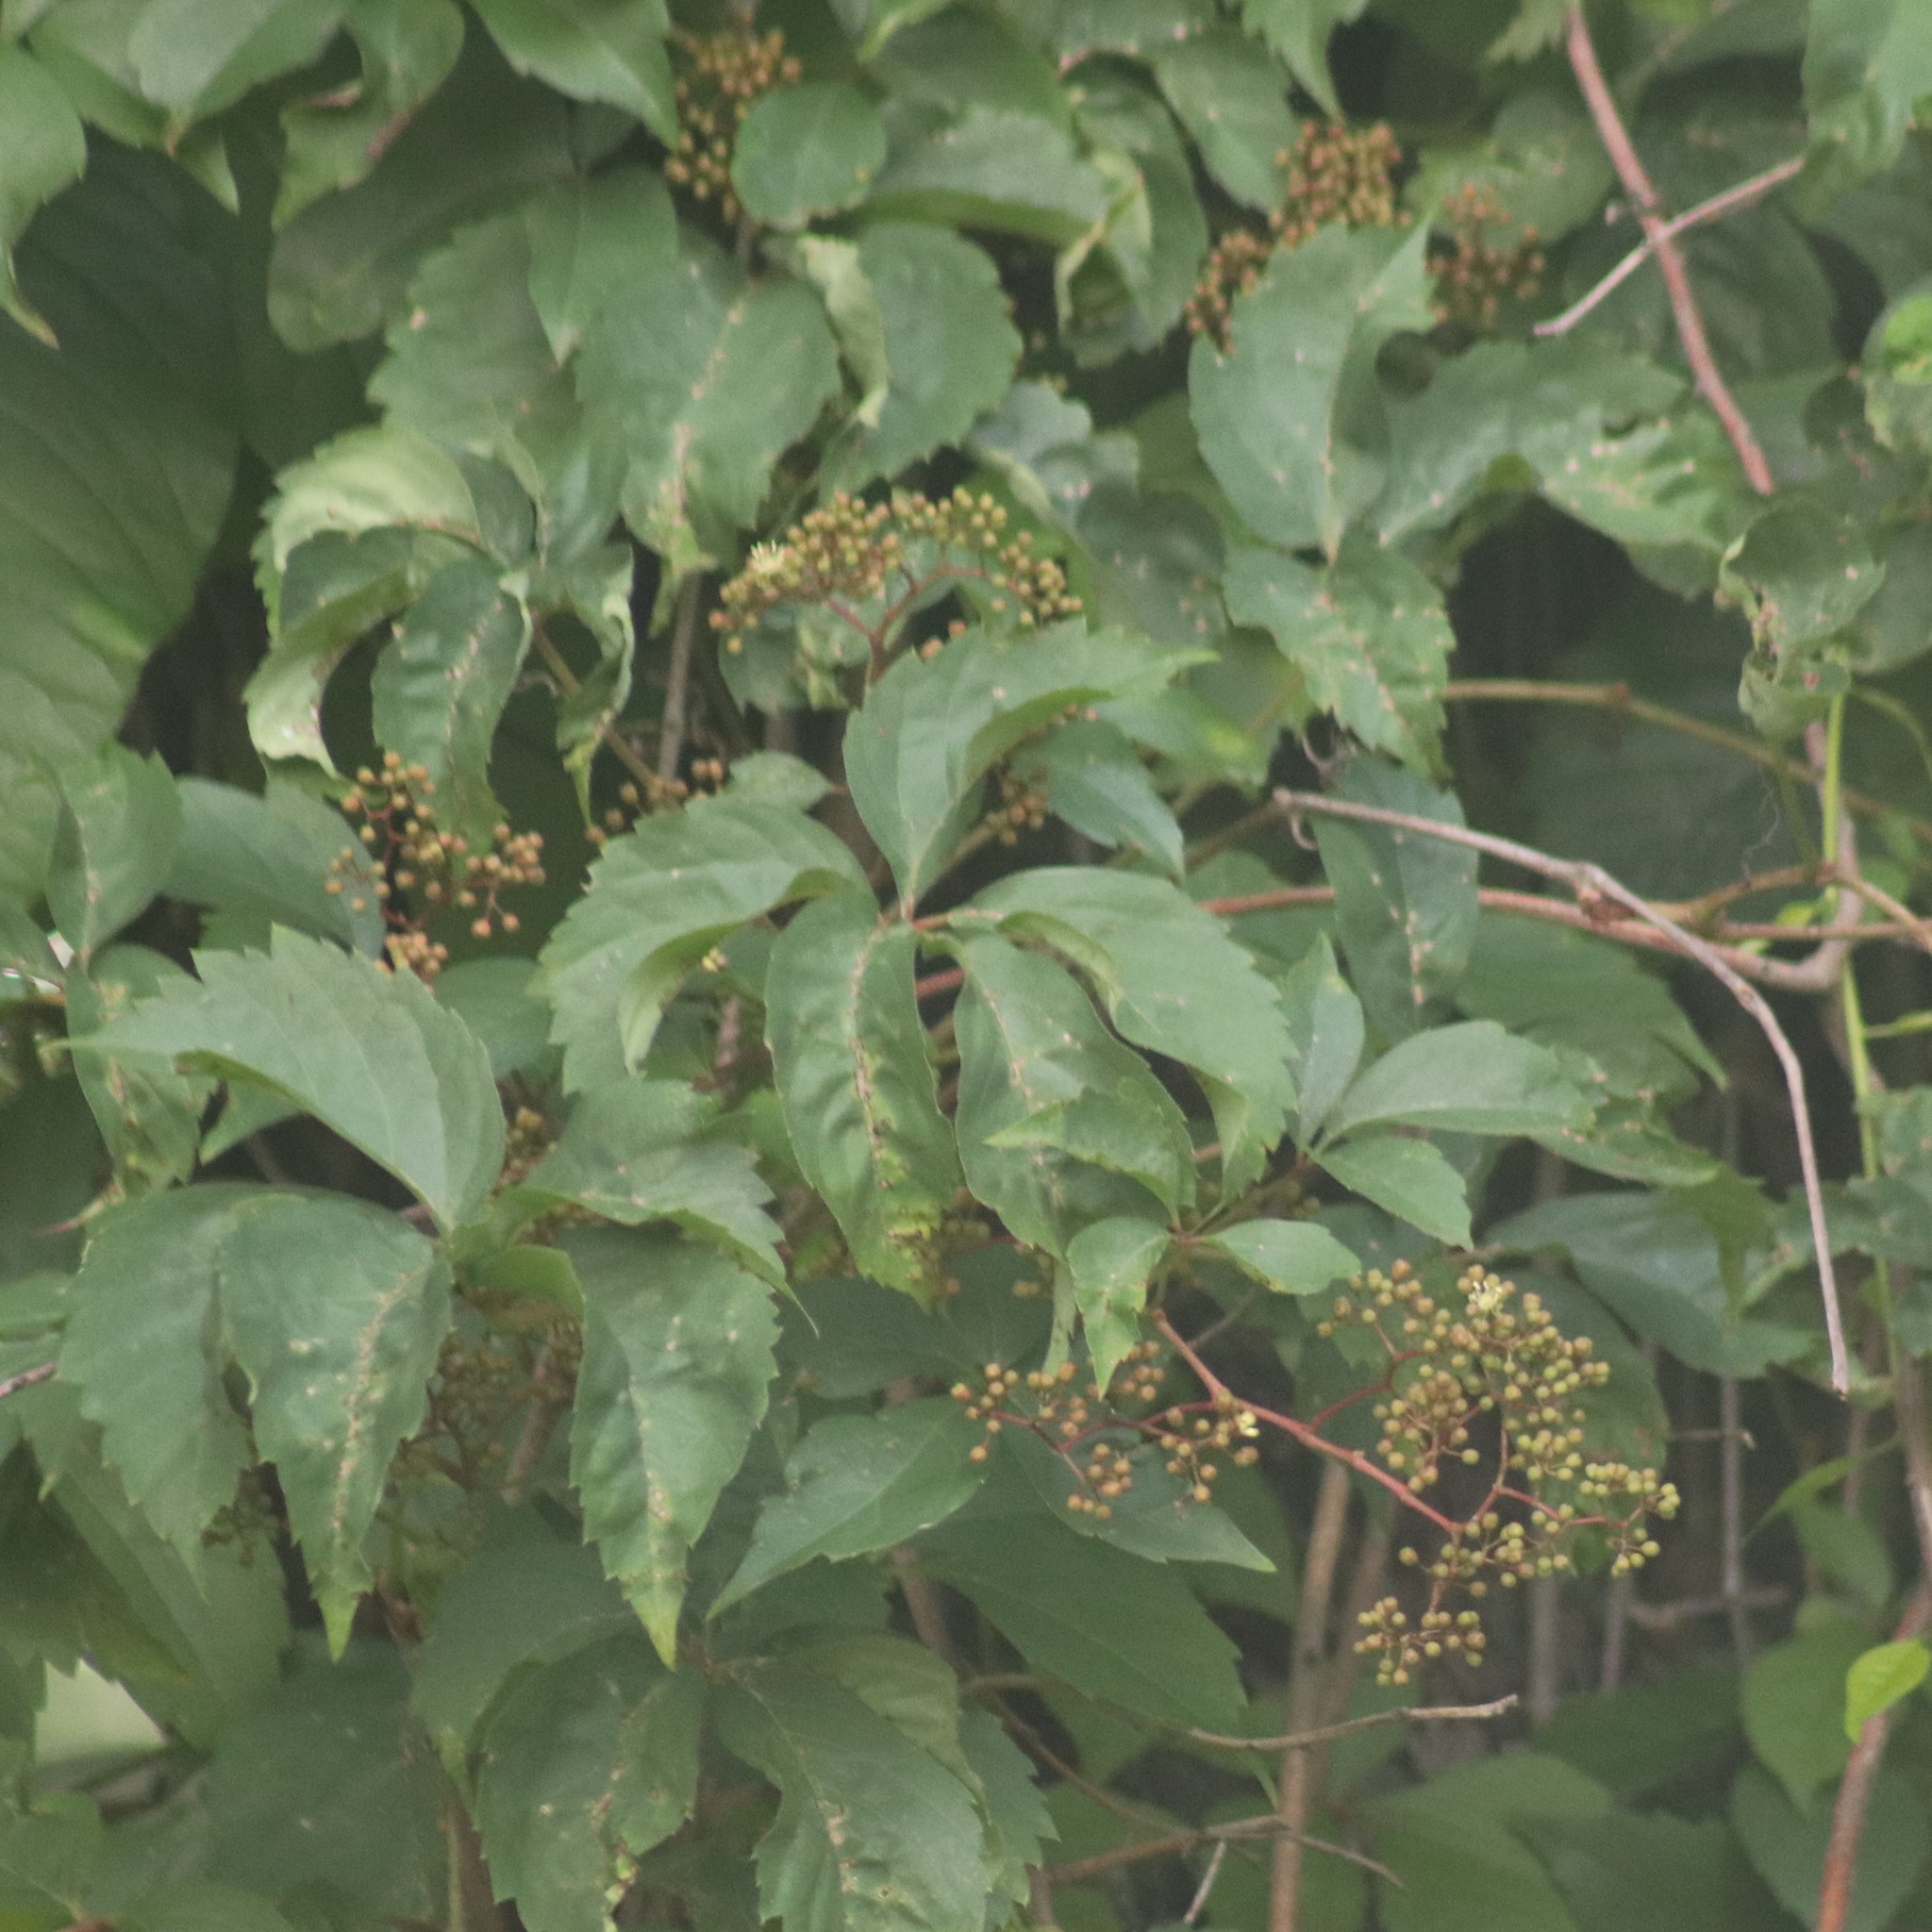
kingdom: Plantae
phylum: Tracheophyta
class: Magnoliopsida
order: Vitales
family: Vitaceae
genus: Parthenocissus
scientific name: Parthenocissus quinquefolia
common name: Virginia-creeper
